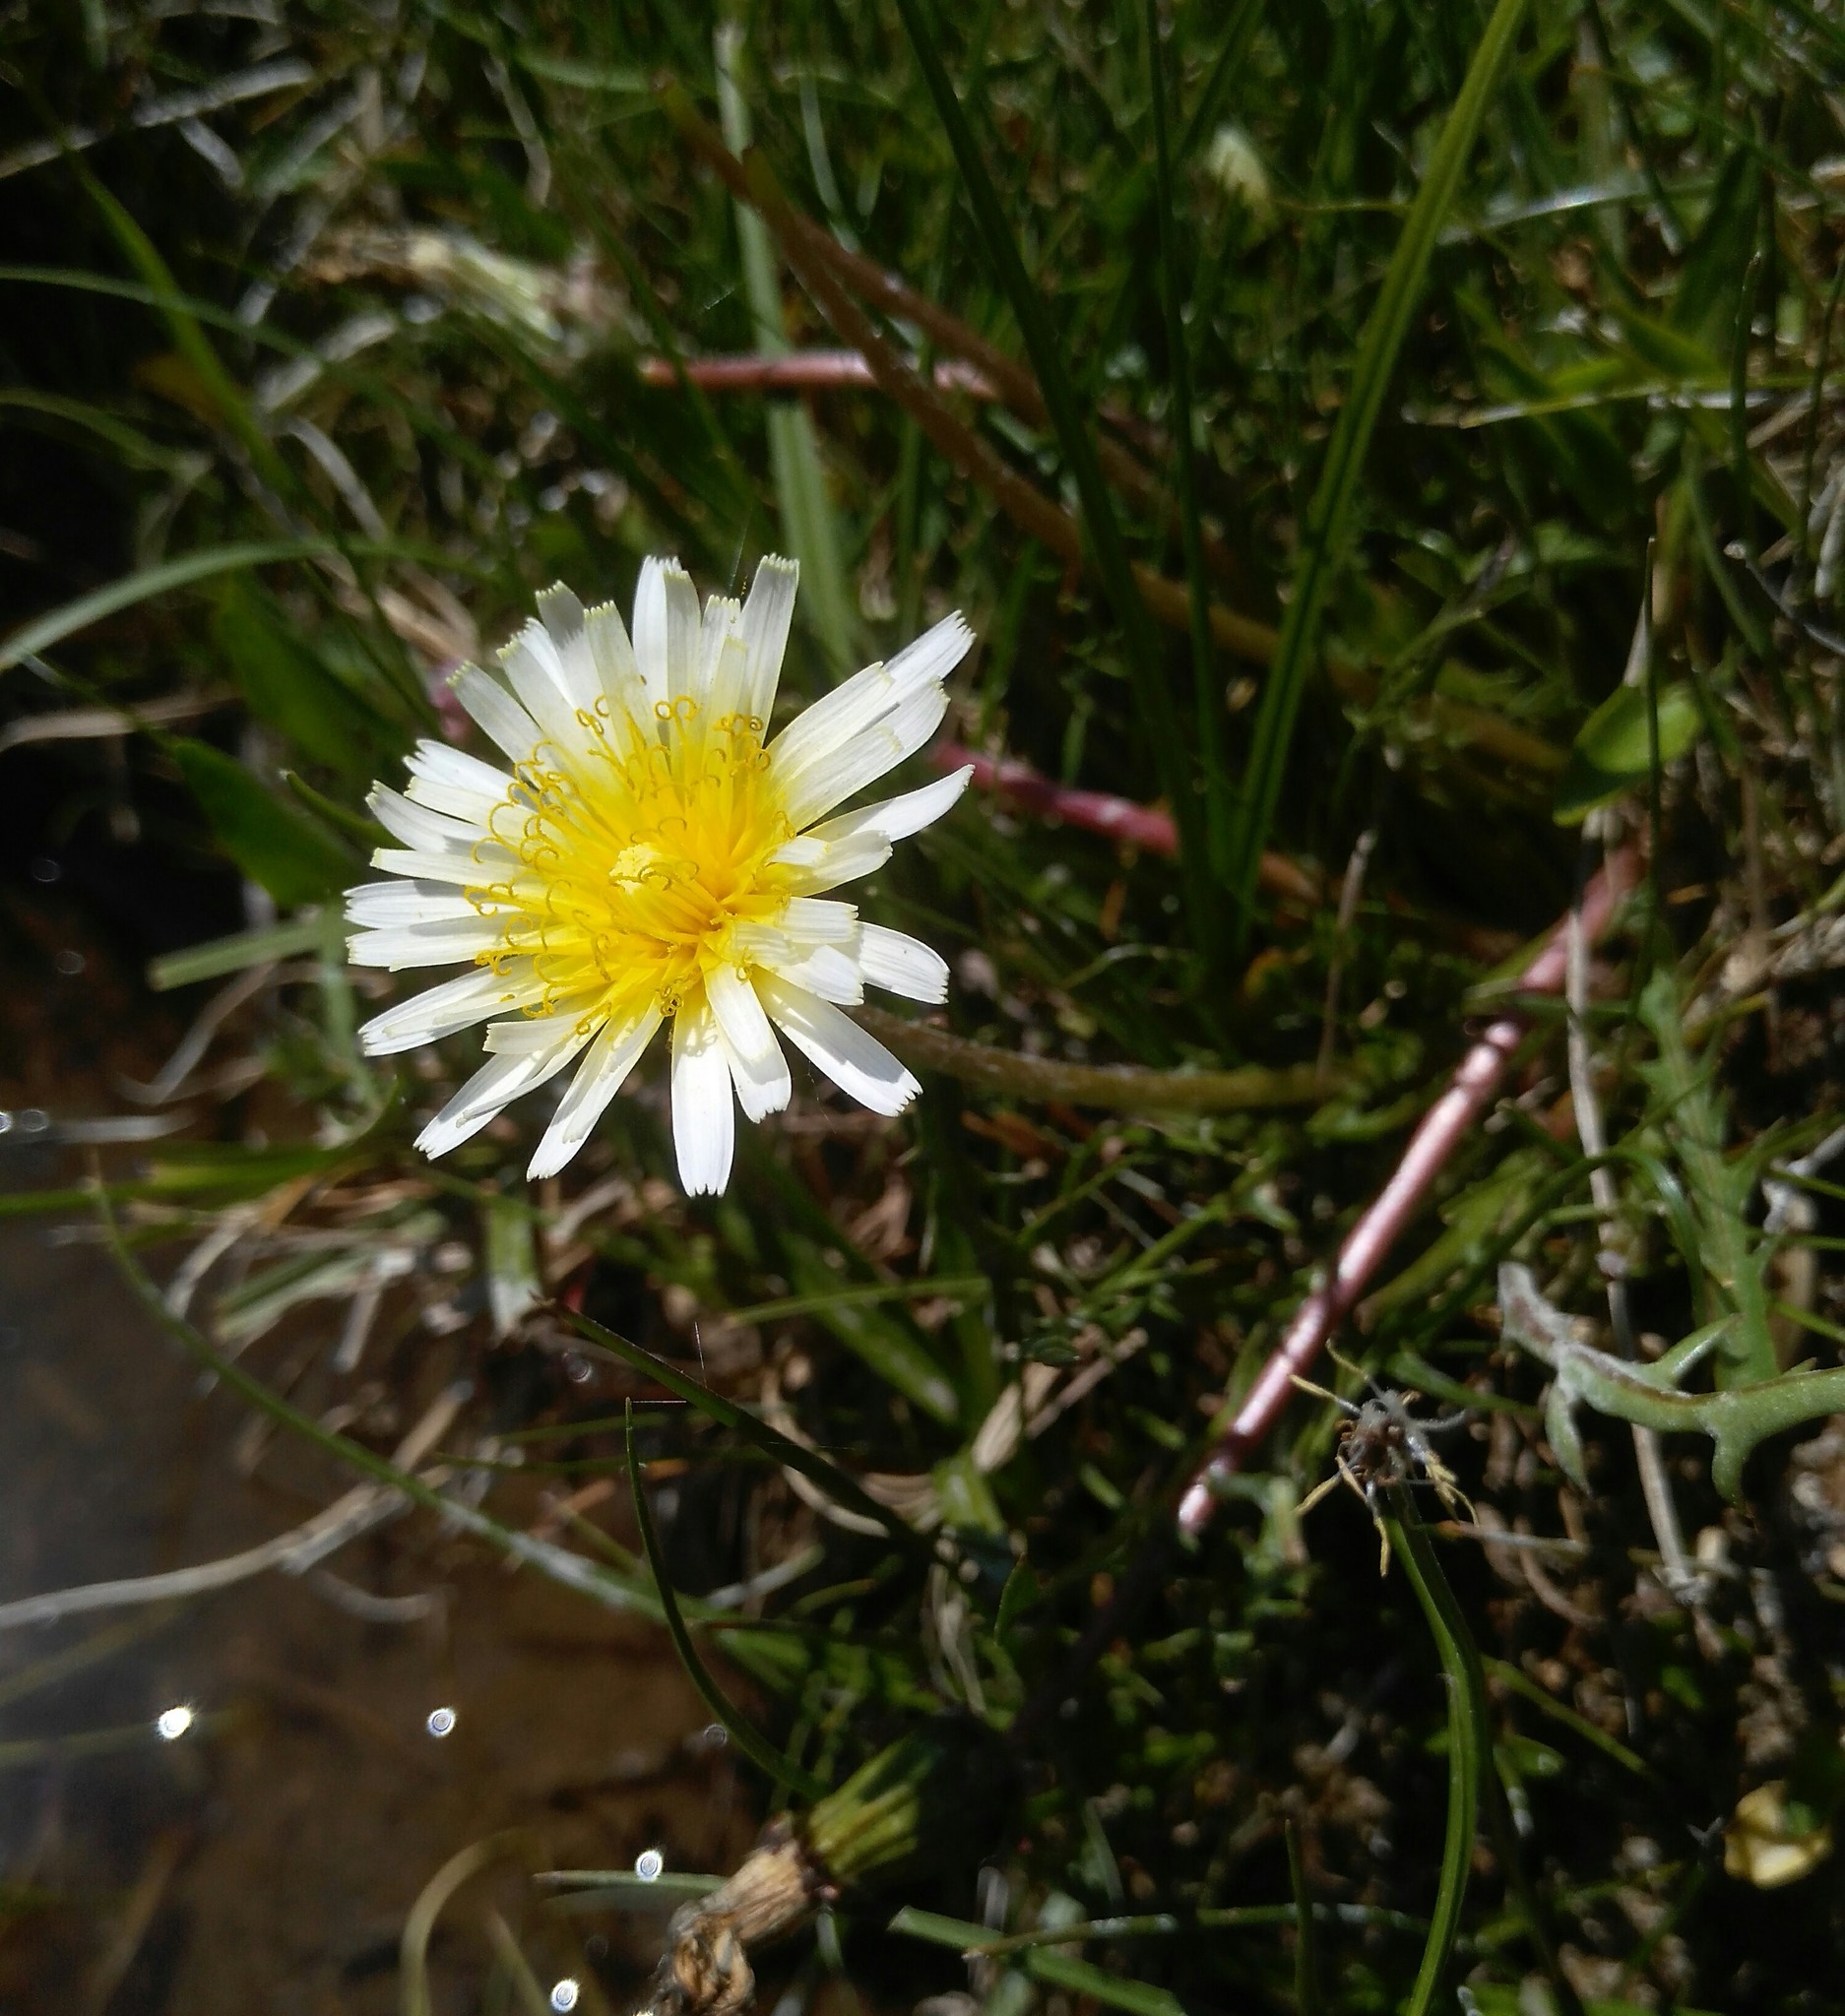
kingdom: Plantae
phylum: Tracheophyta
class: Magnoliopsida
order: Asterales
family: Asteraceae
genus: Taraxacum
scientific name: Taraxacum leucanthum
